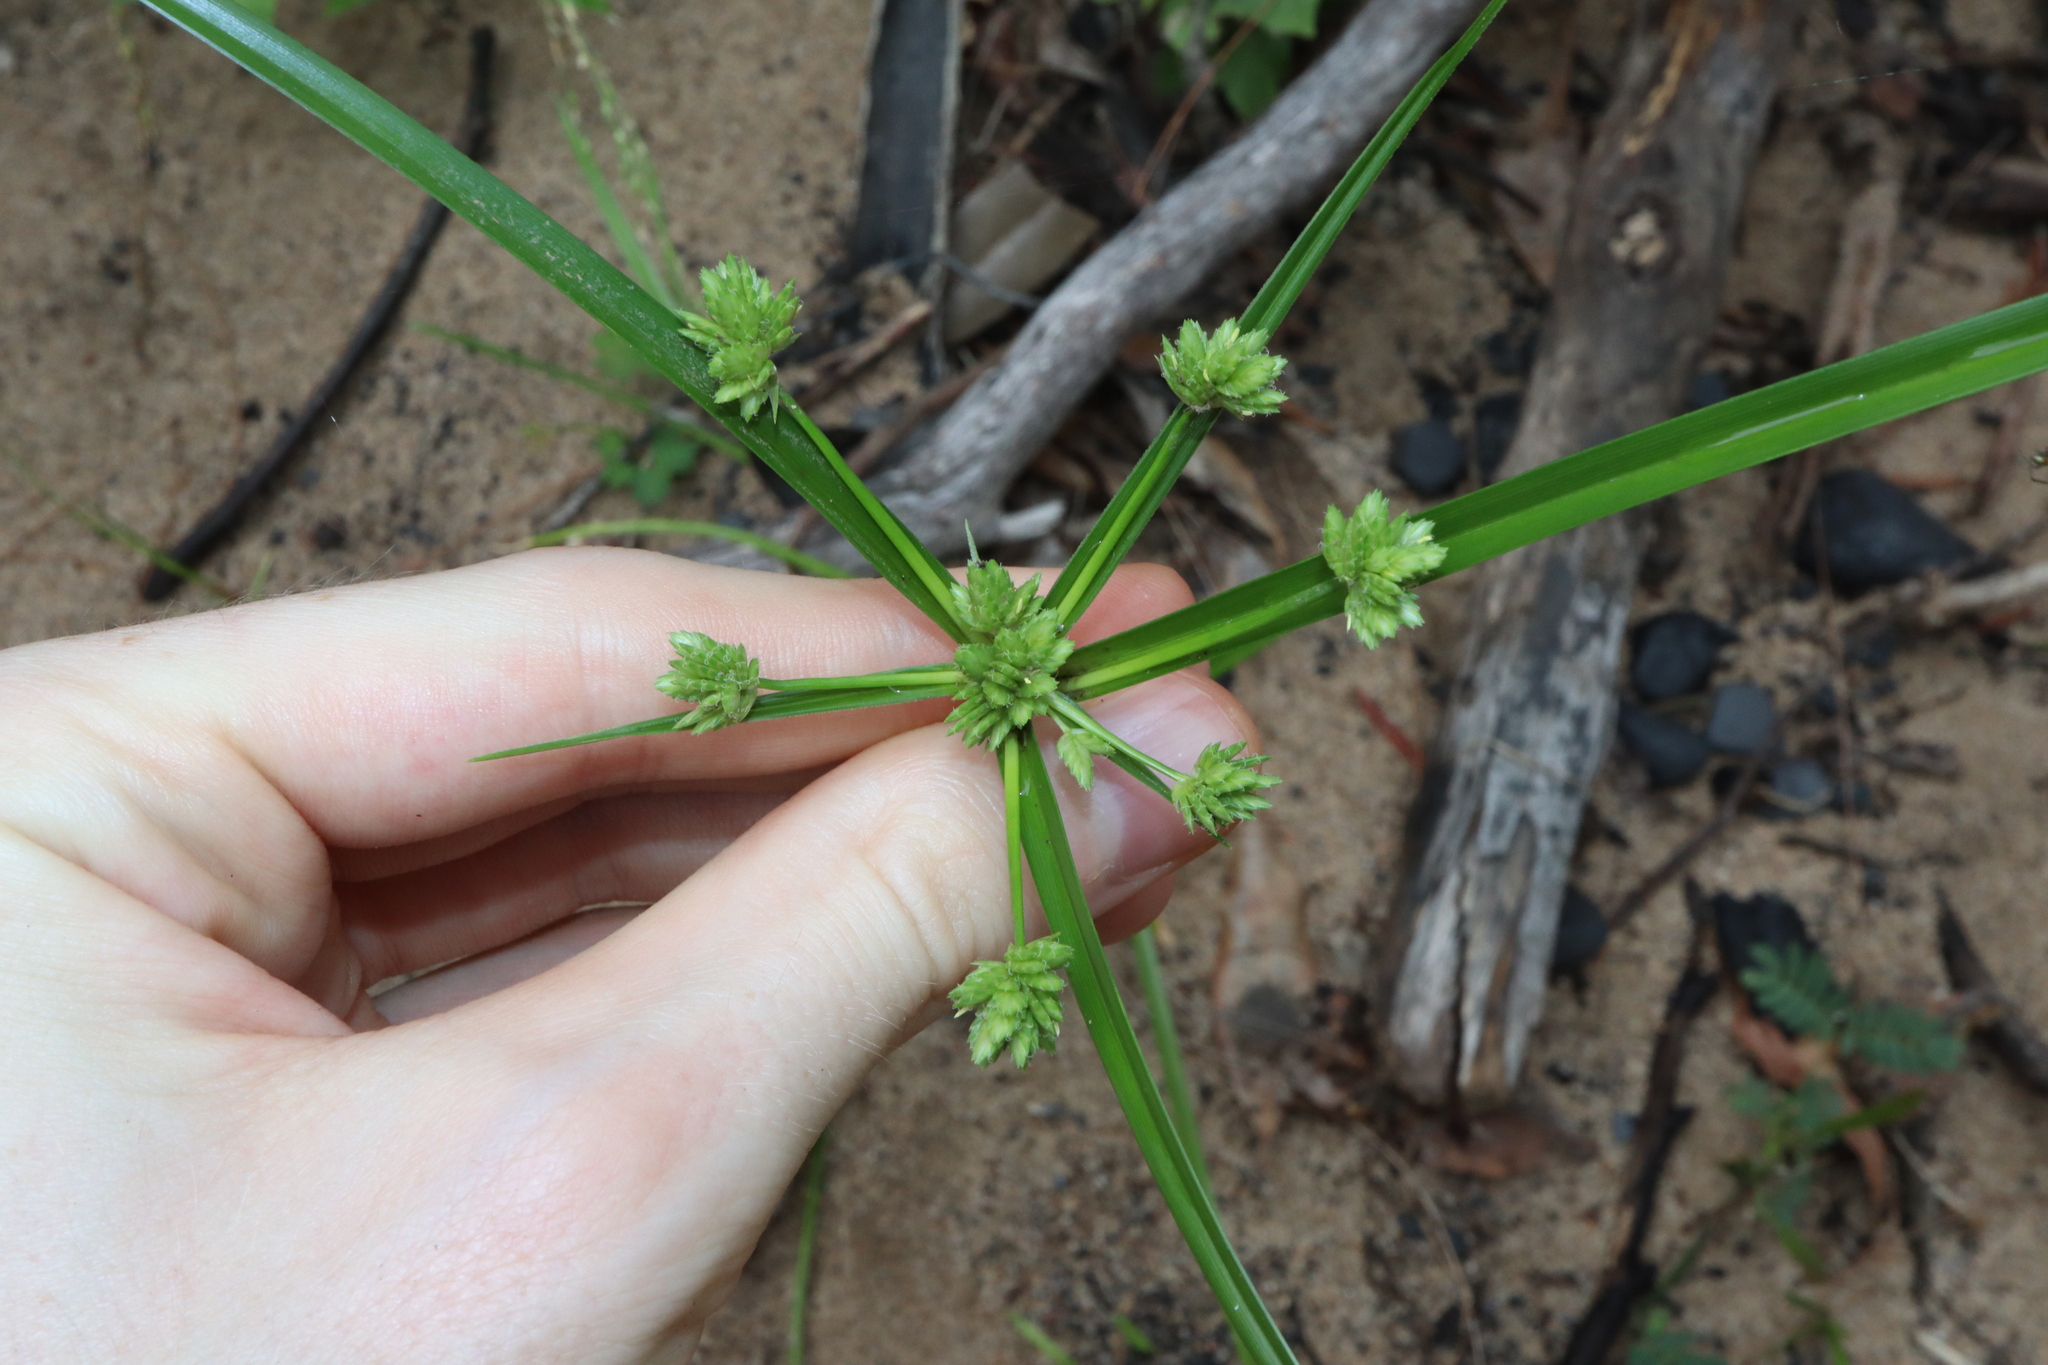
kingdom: Plantae
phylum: Tracheophyta
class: Liliopsida
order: Poales
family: Cyperaceae
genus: Cyperus
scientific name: Cyperus eragrostis
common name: Tall flatsedge
